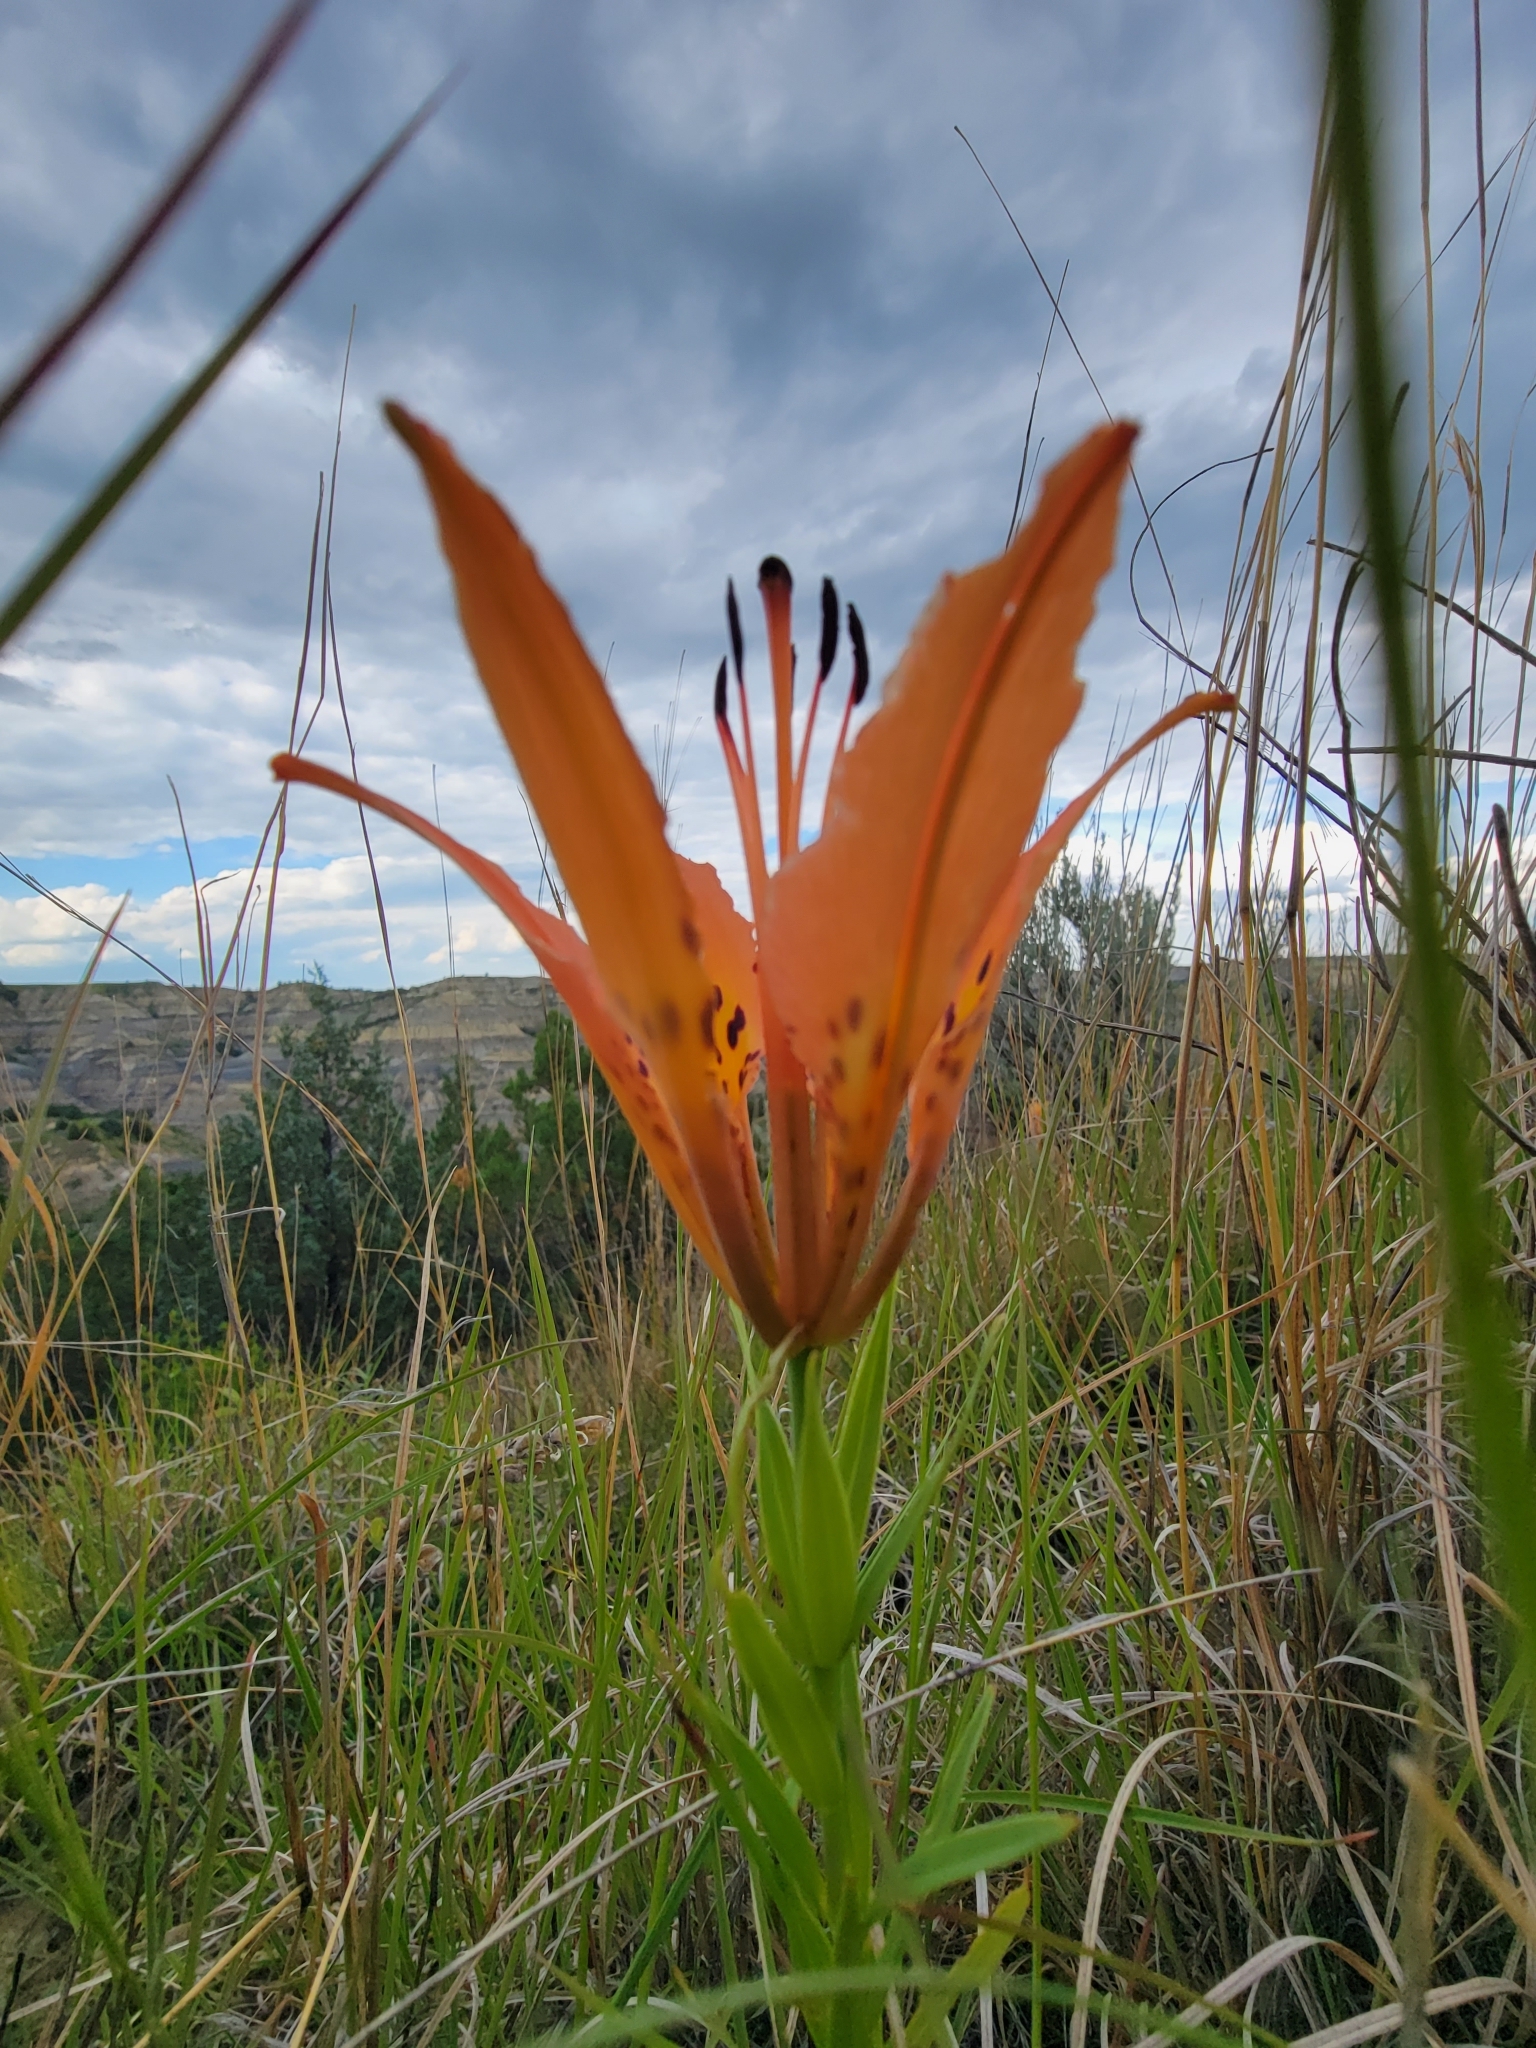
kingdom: Plantae
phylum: Tracheophyta
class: Liliopsida
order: Liliales
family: Liliaceae
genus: Lilium
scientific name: Lilium philadelphicum
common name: Red lily
